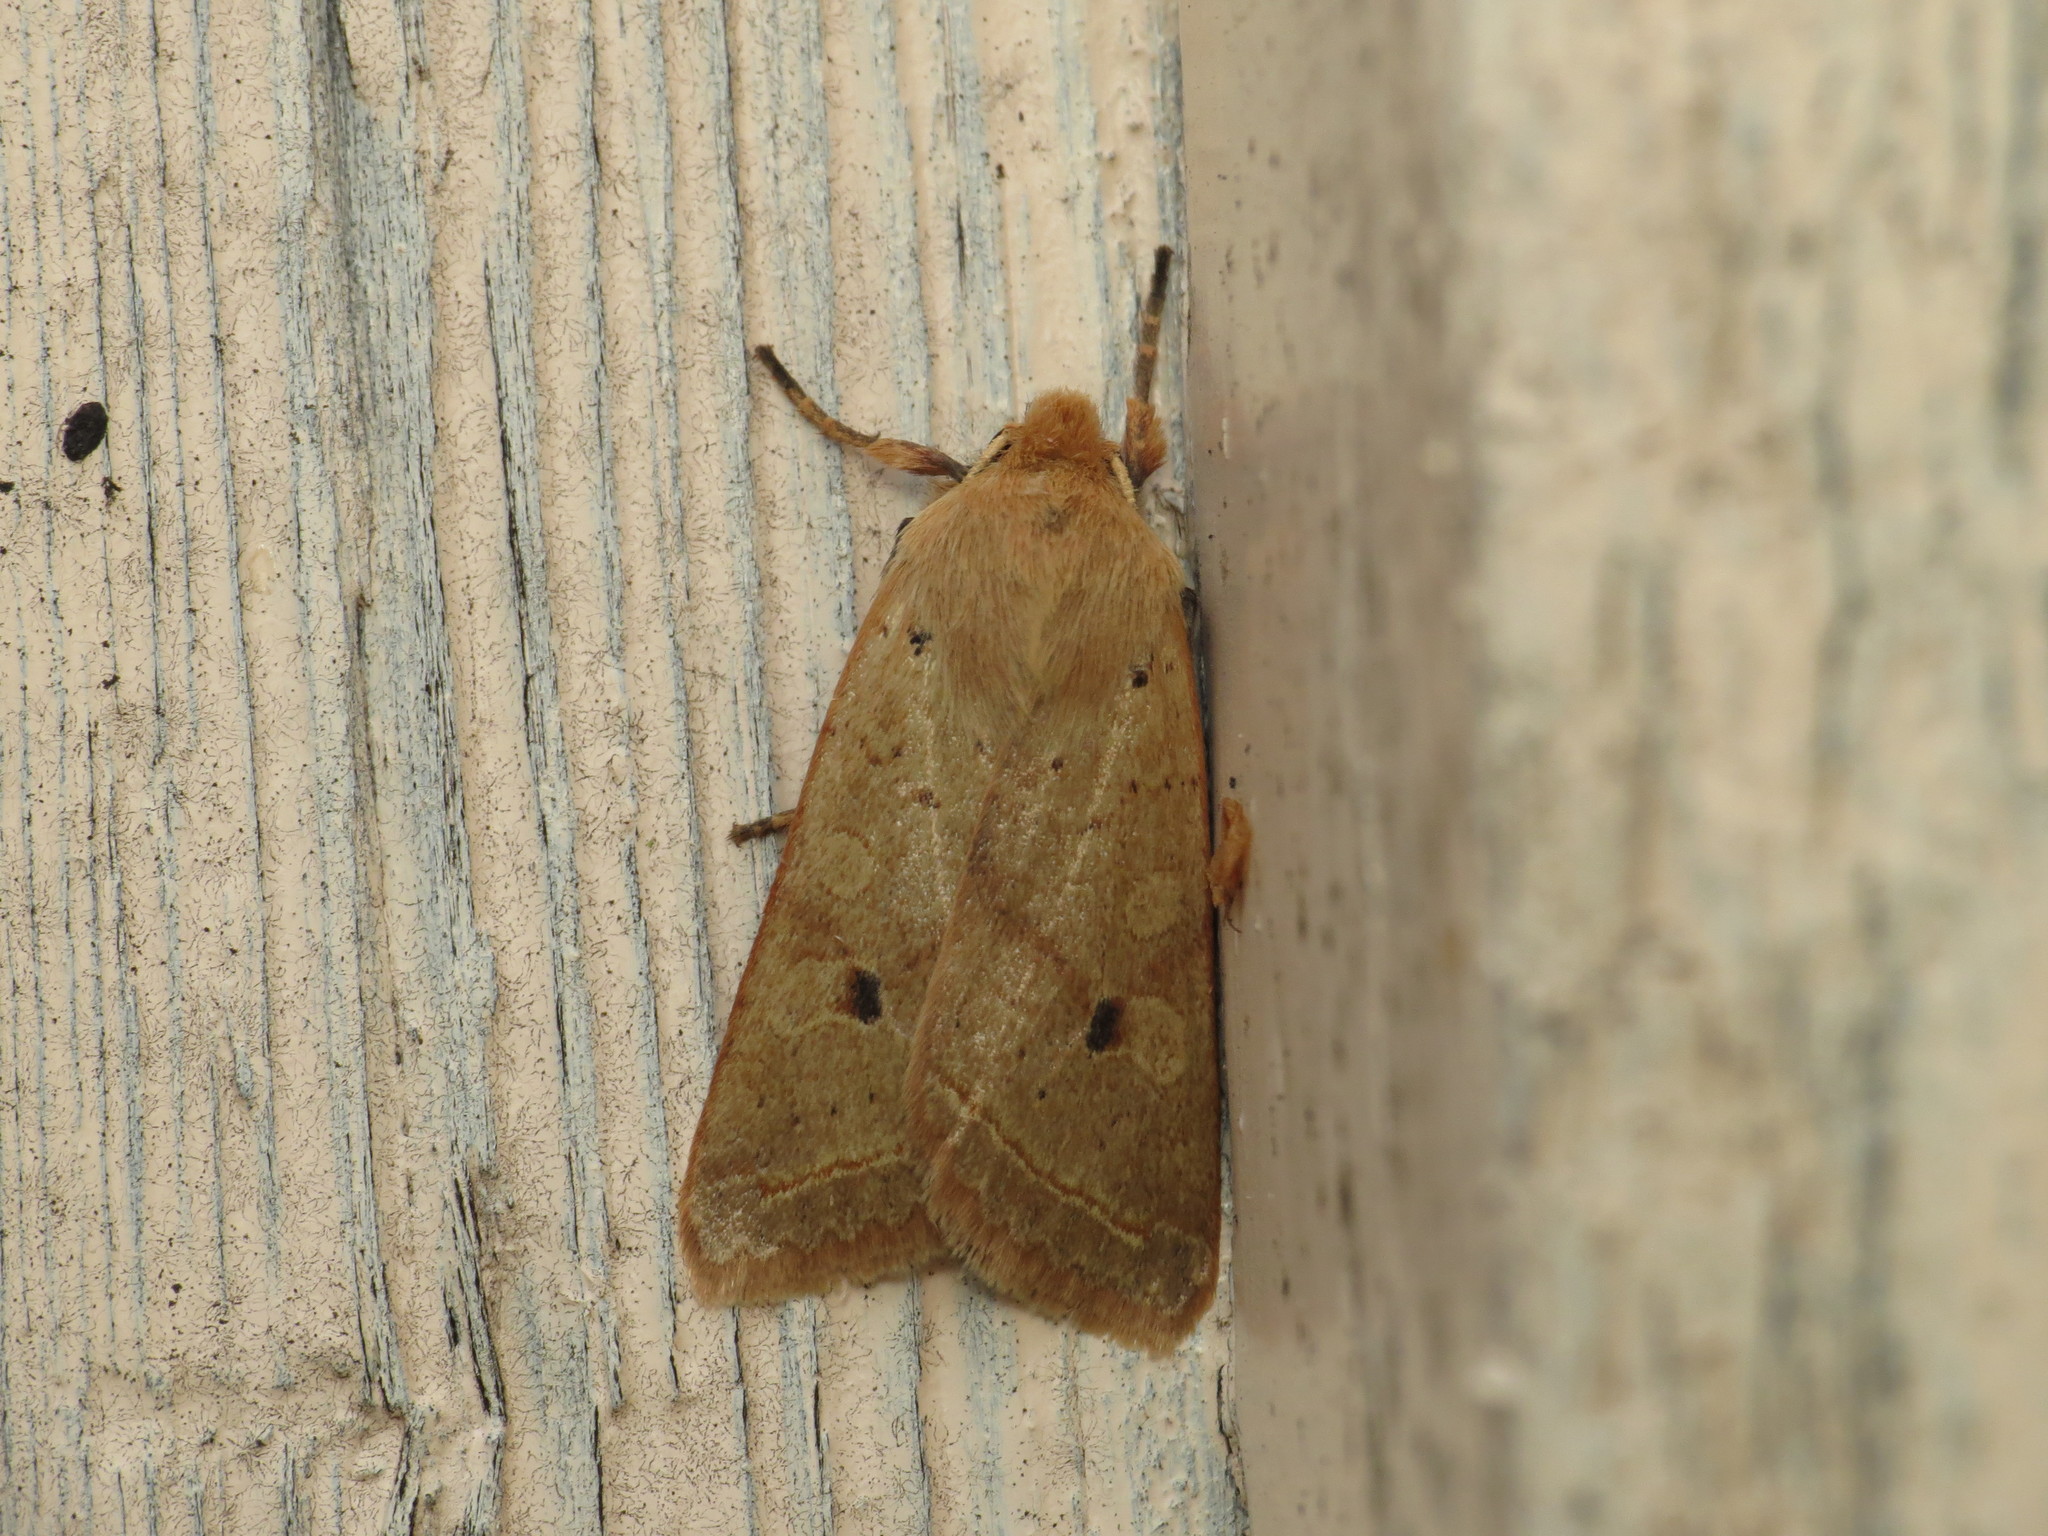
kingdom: Animalia
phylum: Arthropoda
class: Insecta
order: Lepidoptera
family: Noctuidae
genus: Agrochola
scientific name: Agrochola macilenta
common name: Yellow-line quaker
